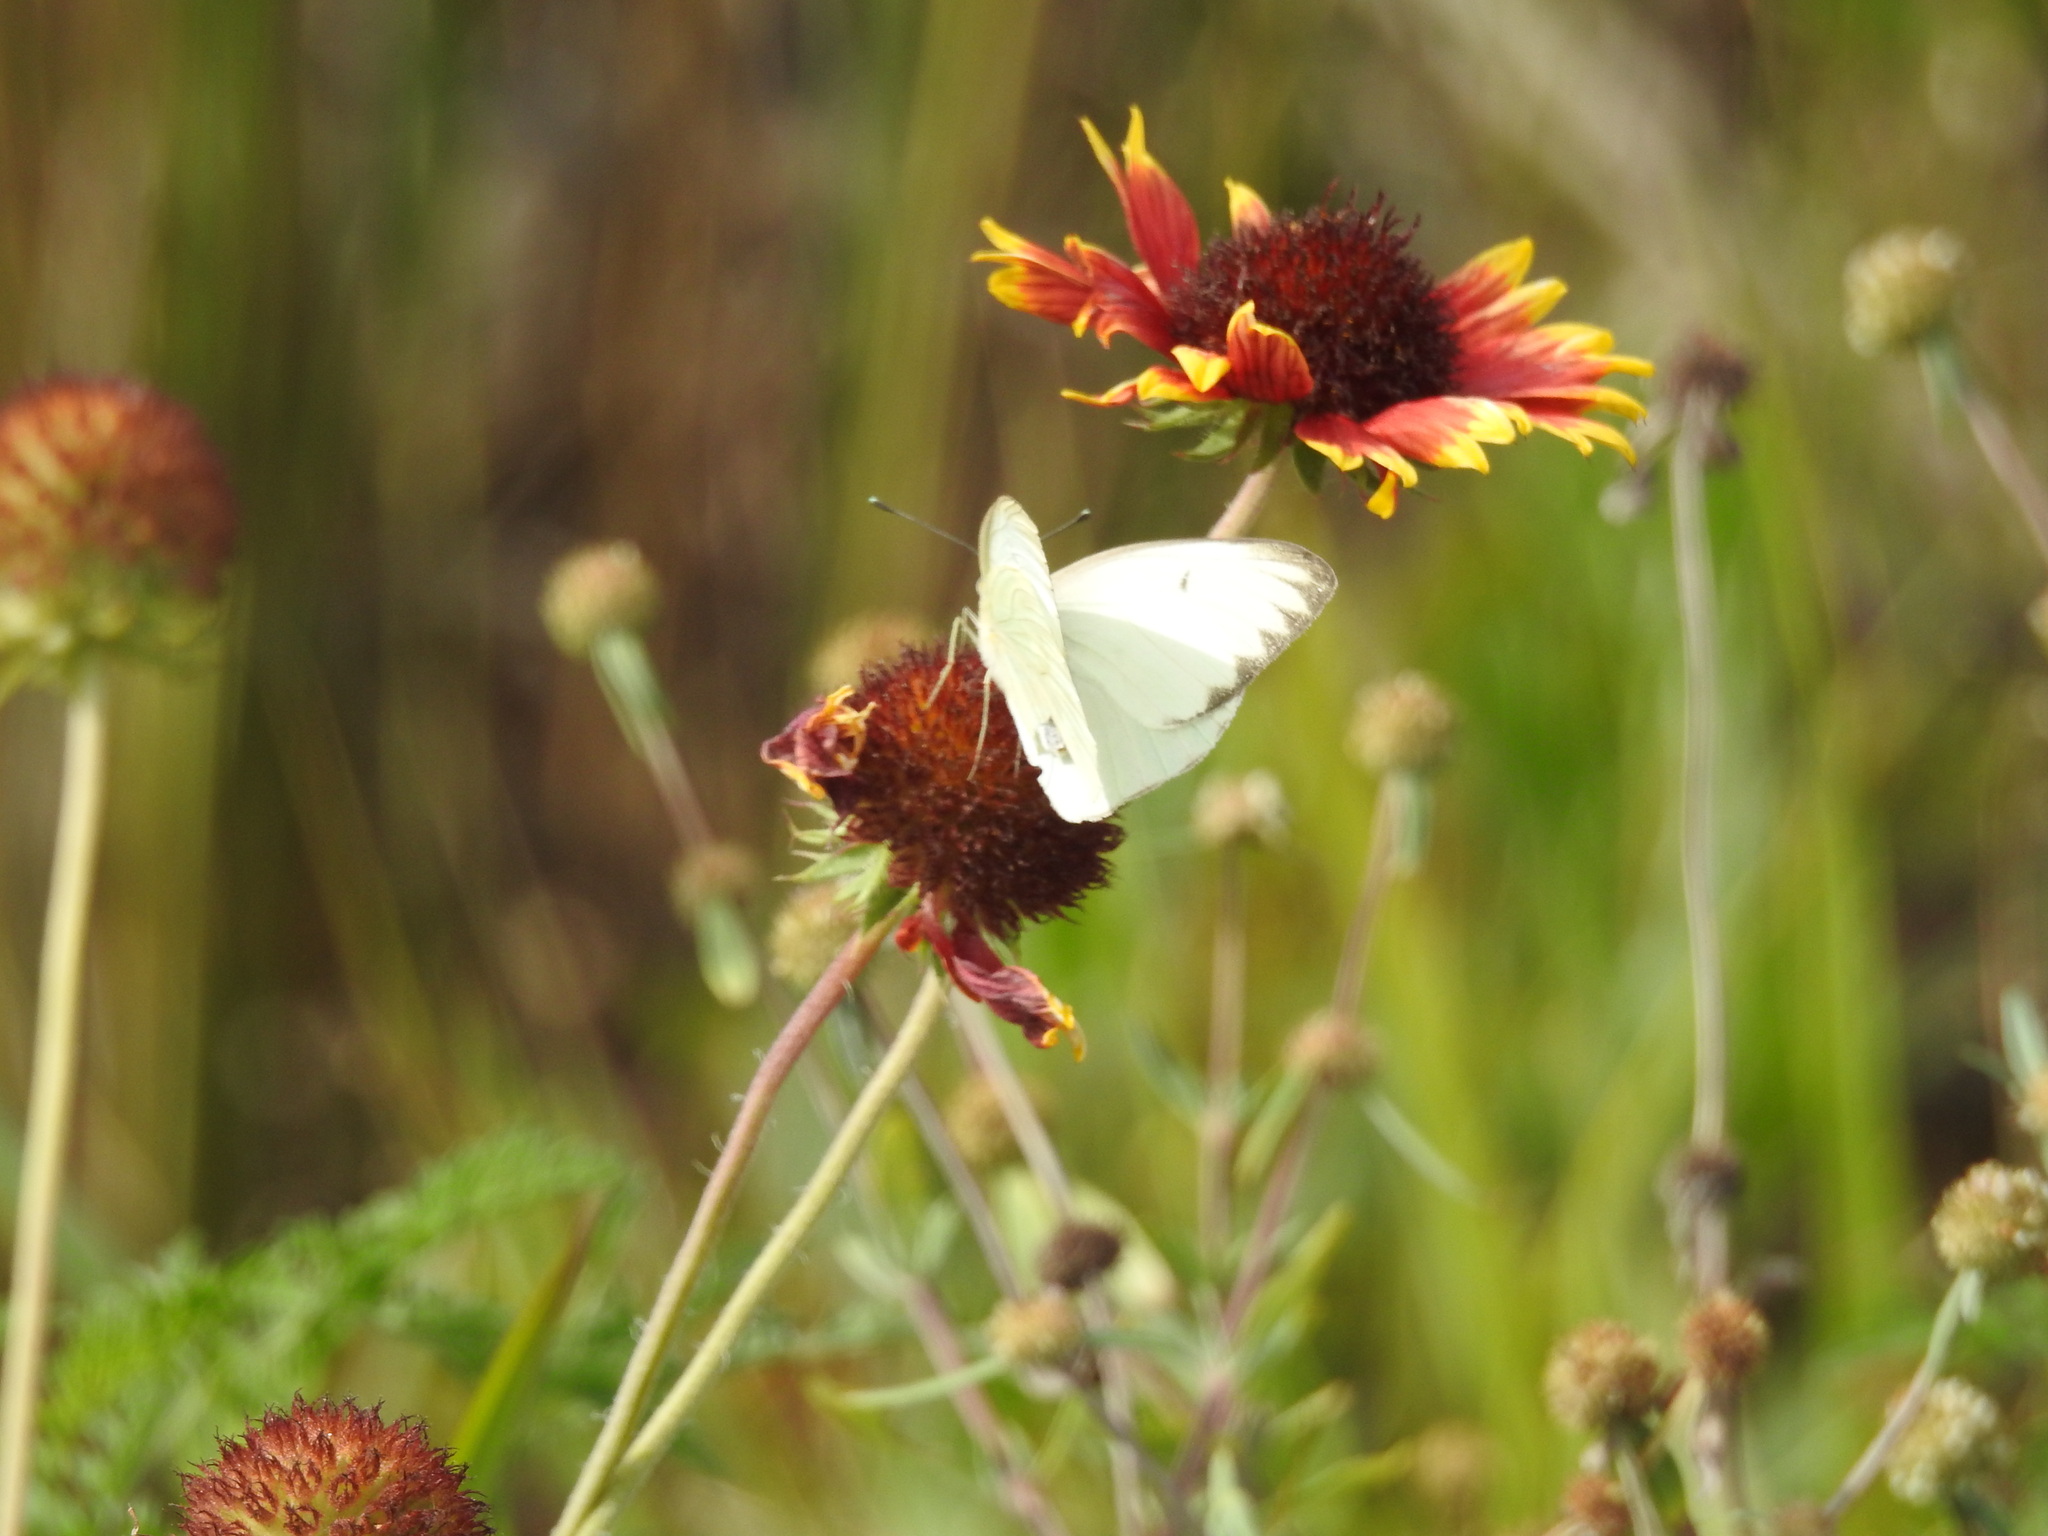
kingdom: Animalia
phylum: Arthropoda
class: Insecta
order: Lepidoptera
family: Pieridae
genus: Ascia
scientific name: Ascia monuste
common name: Great southern white
